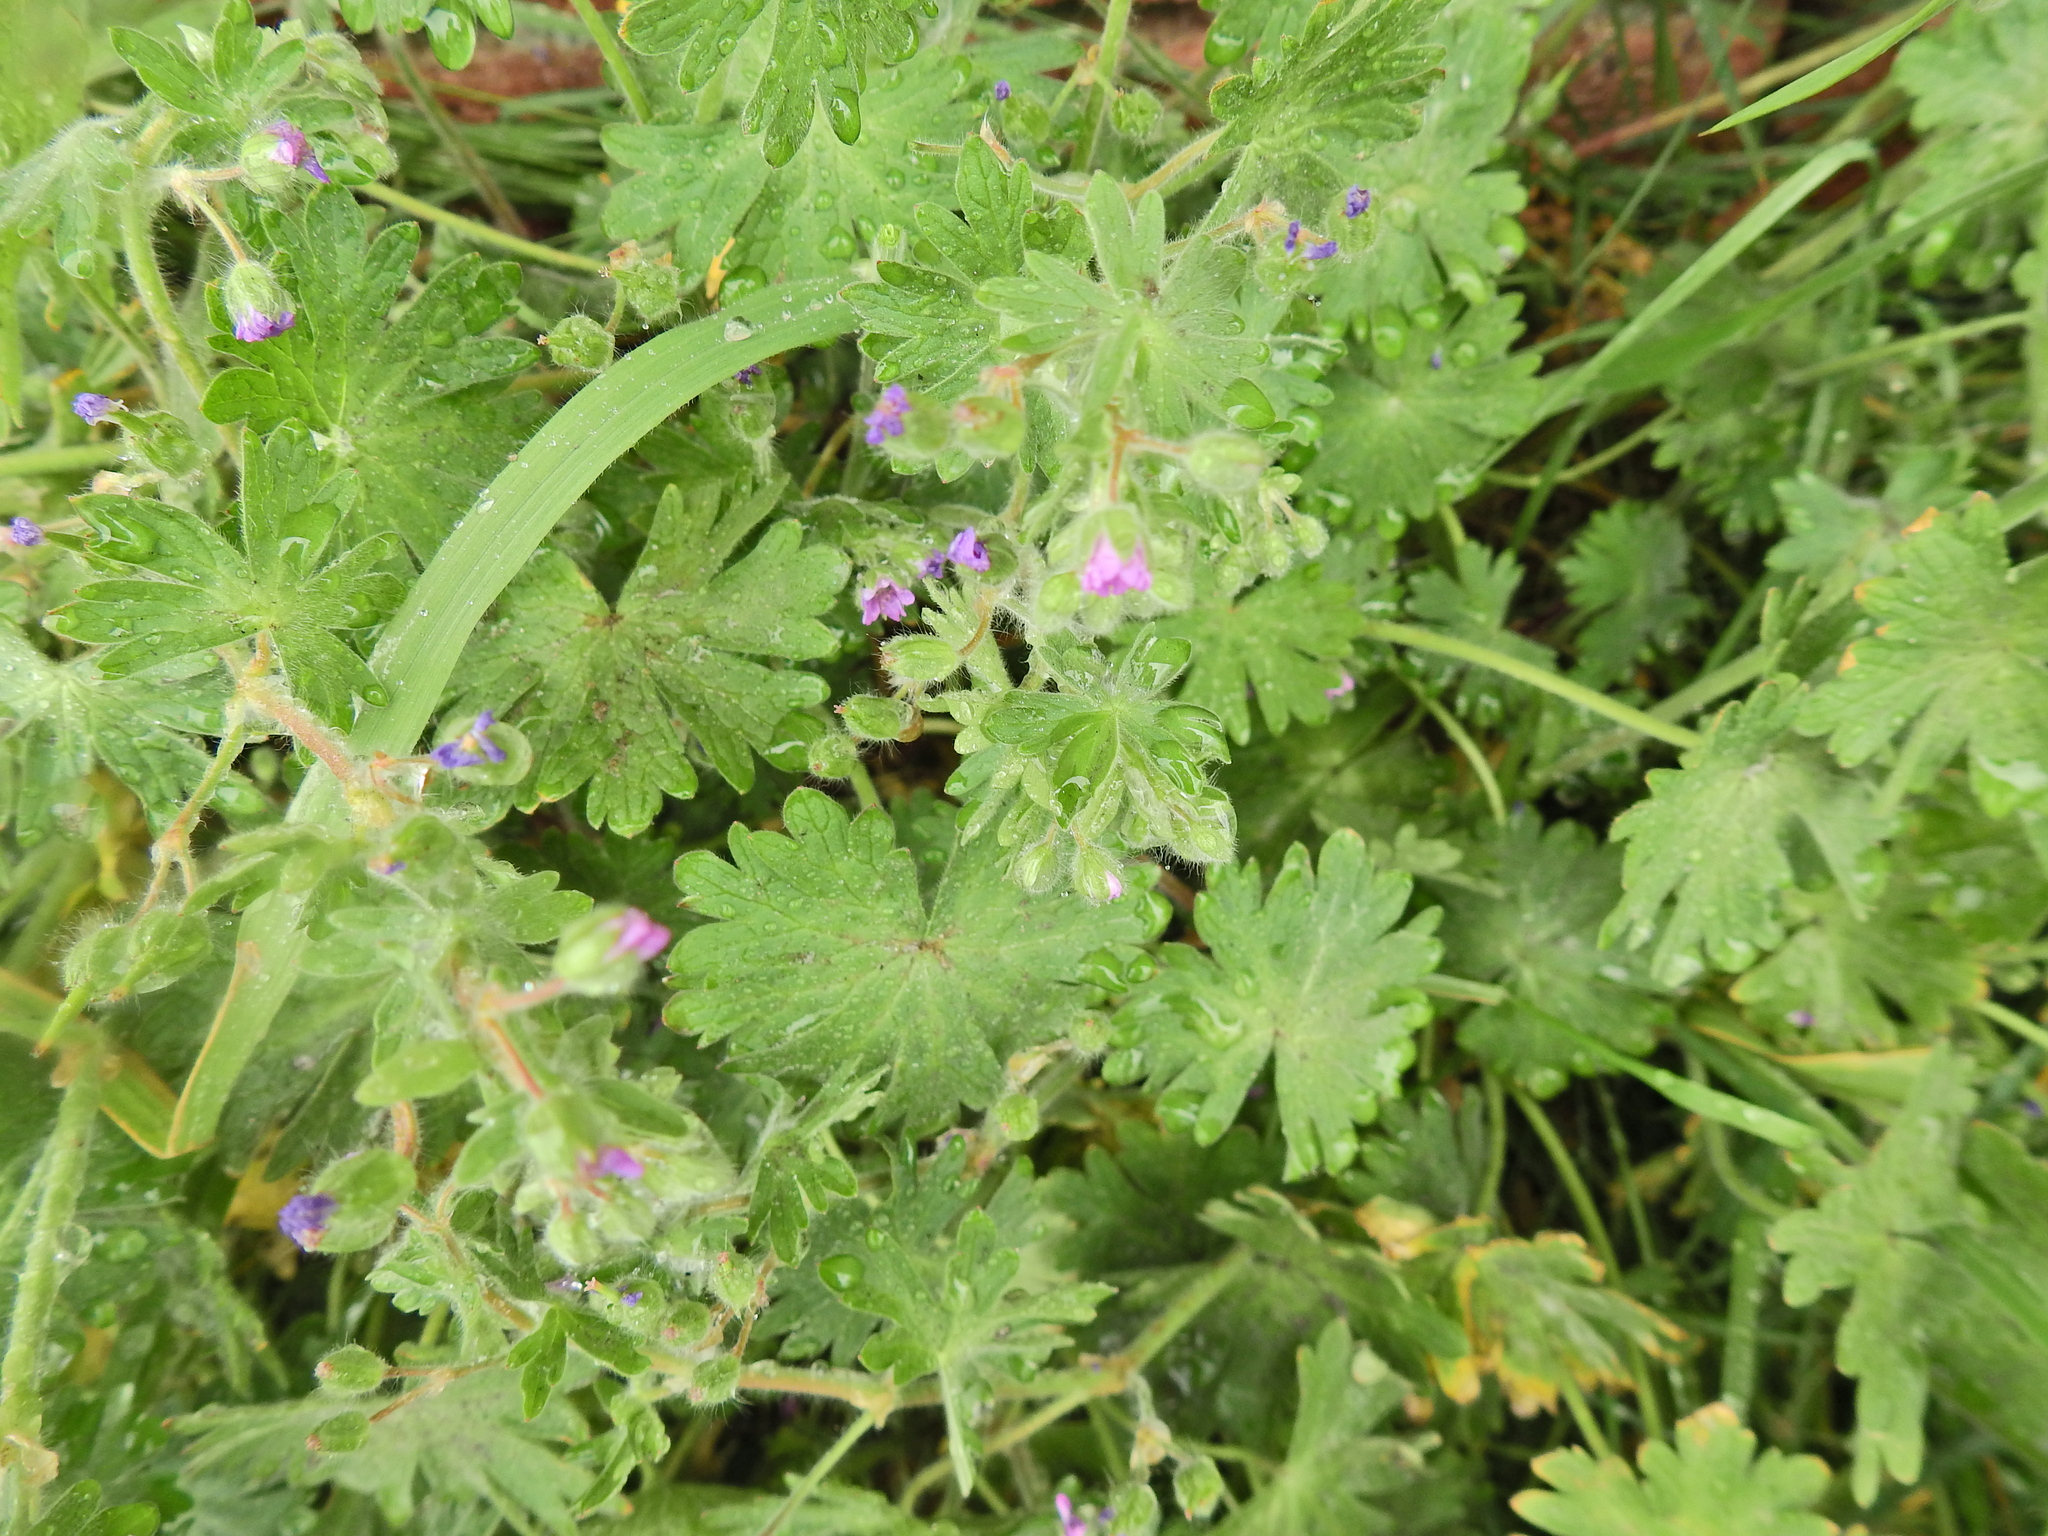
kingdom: Plantae
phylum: Tracheophyta
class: Magnoliopsida
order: Geraniales
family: Geraniaceae
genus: Geranium
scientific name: Geranium molle
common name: Dove's-foot crane's-bill
